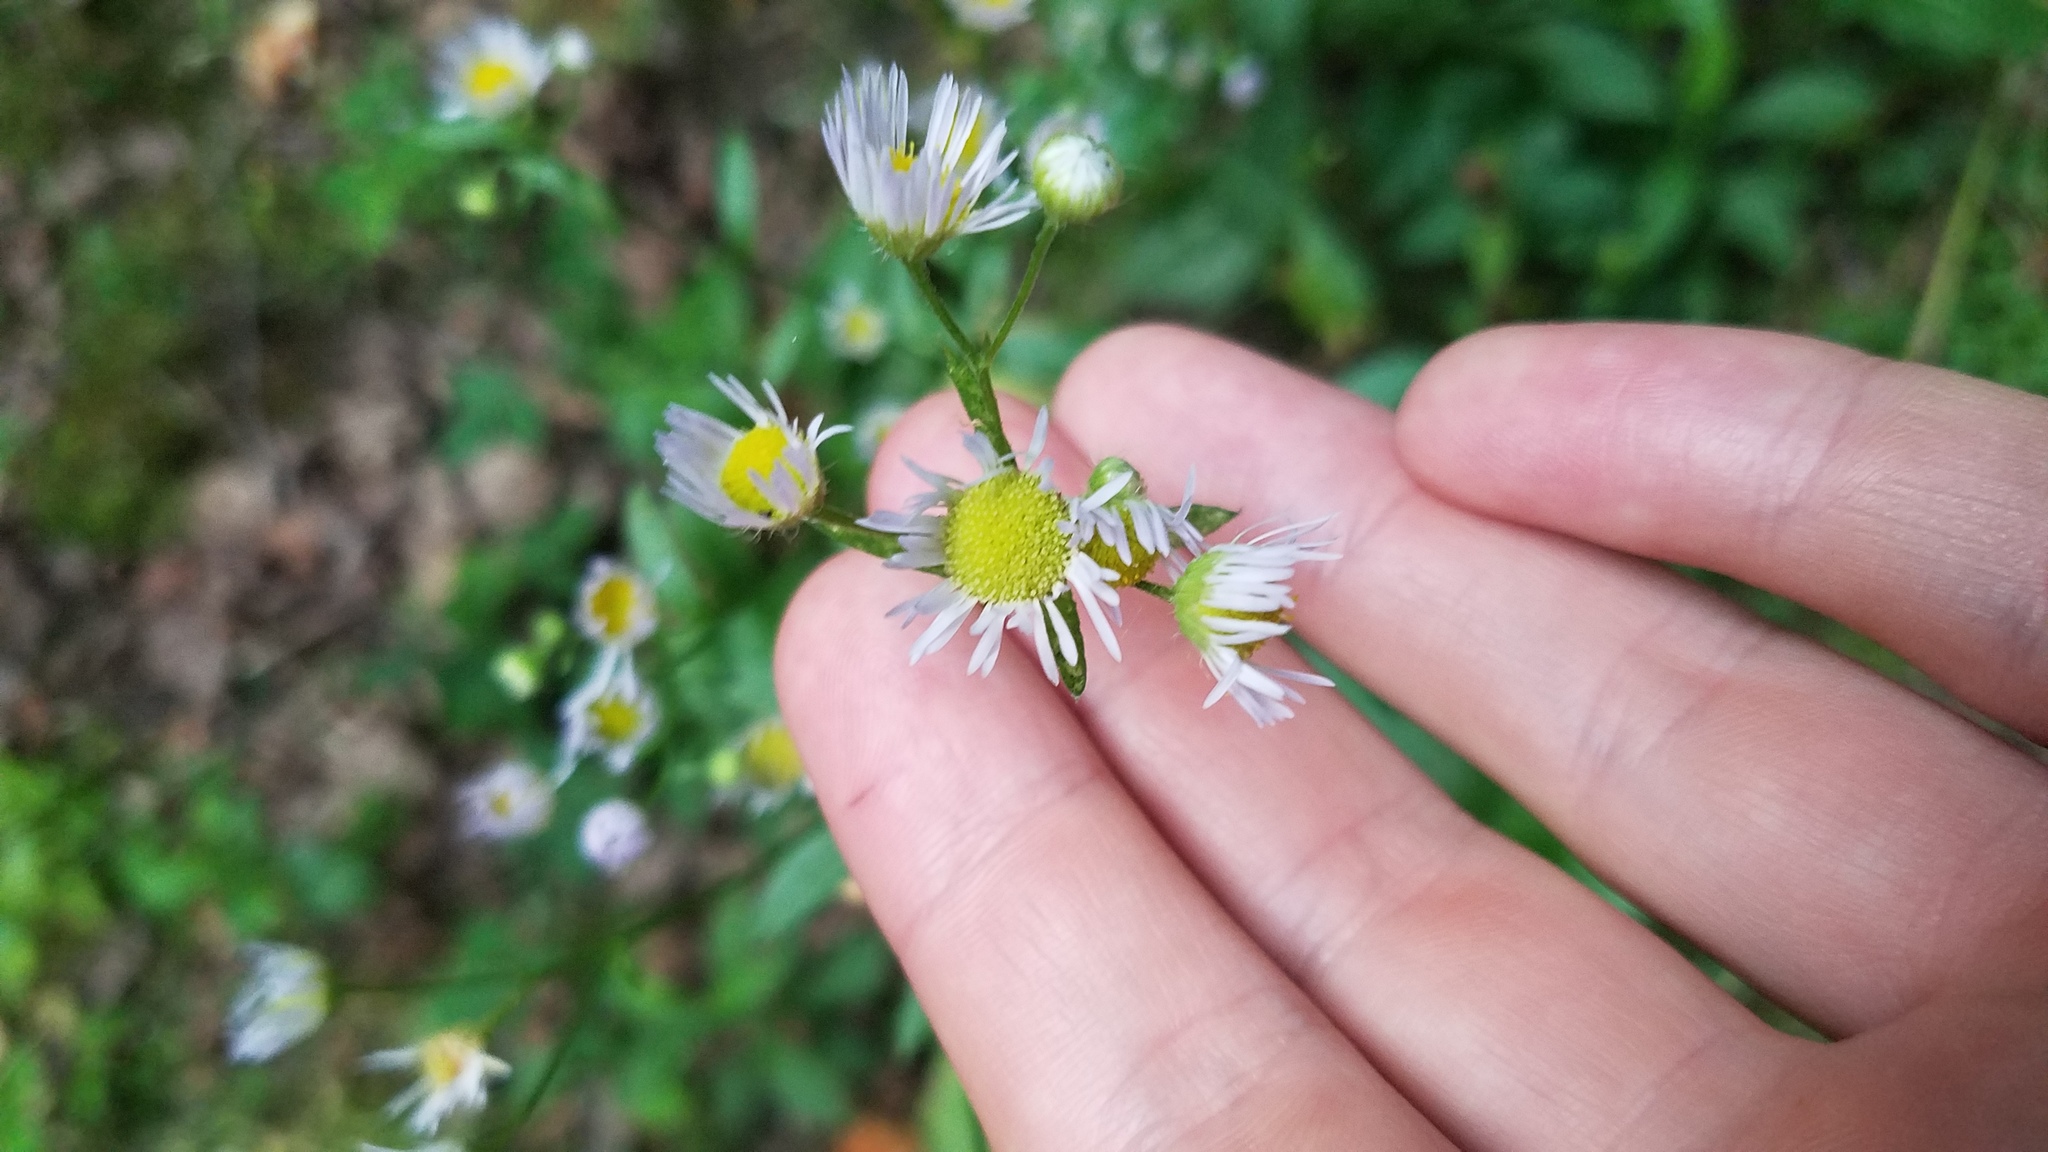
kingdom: Plantae
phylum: Tracheophyta
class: Magnoliopsida
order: Asterales
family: Asteraceae
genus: Erigeron
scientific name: Erigeron strigosus
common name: Common eastern fleabane
